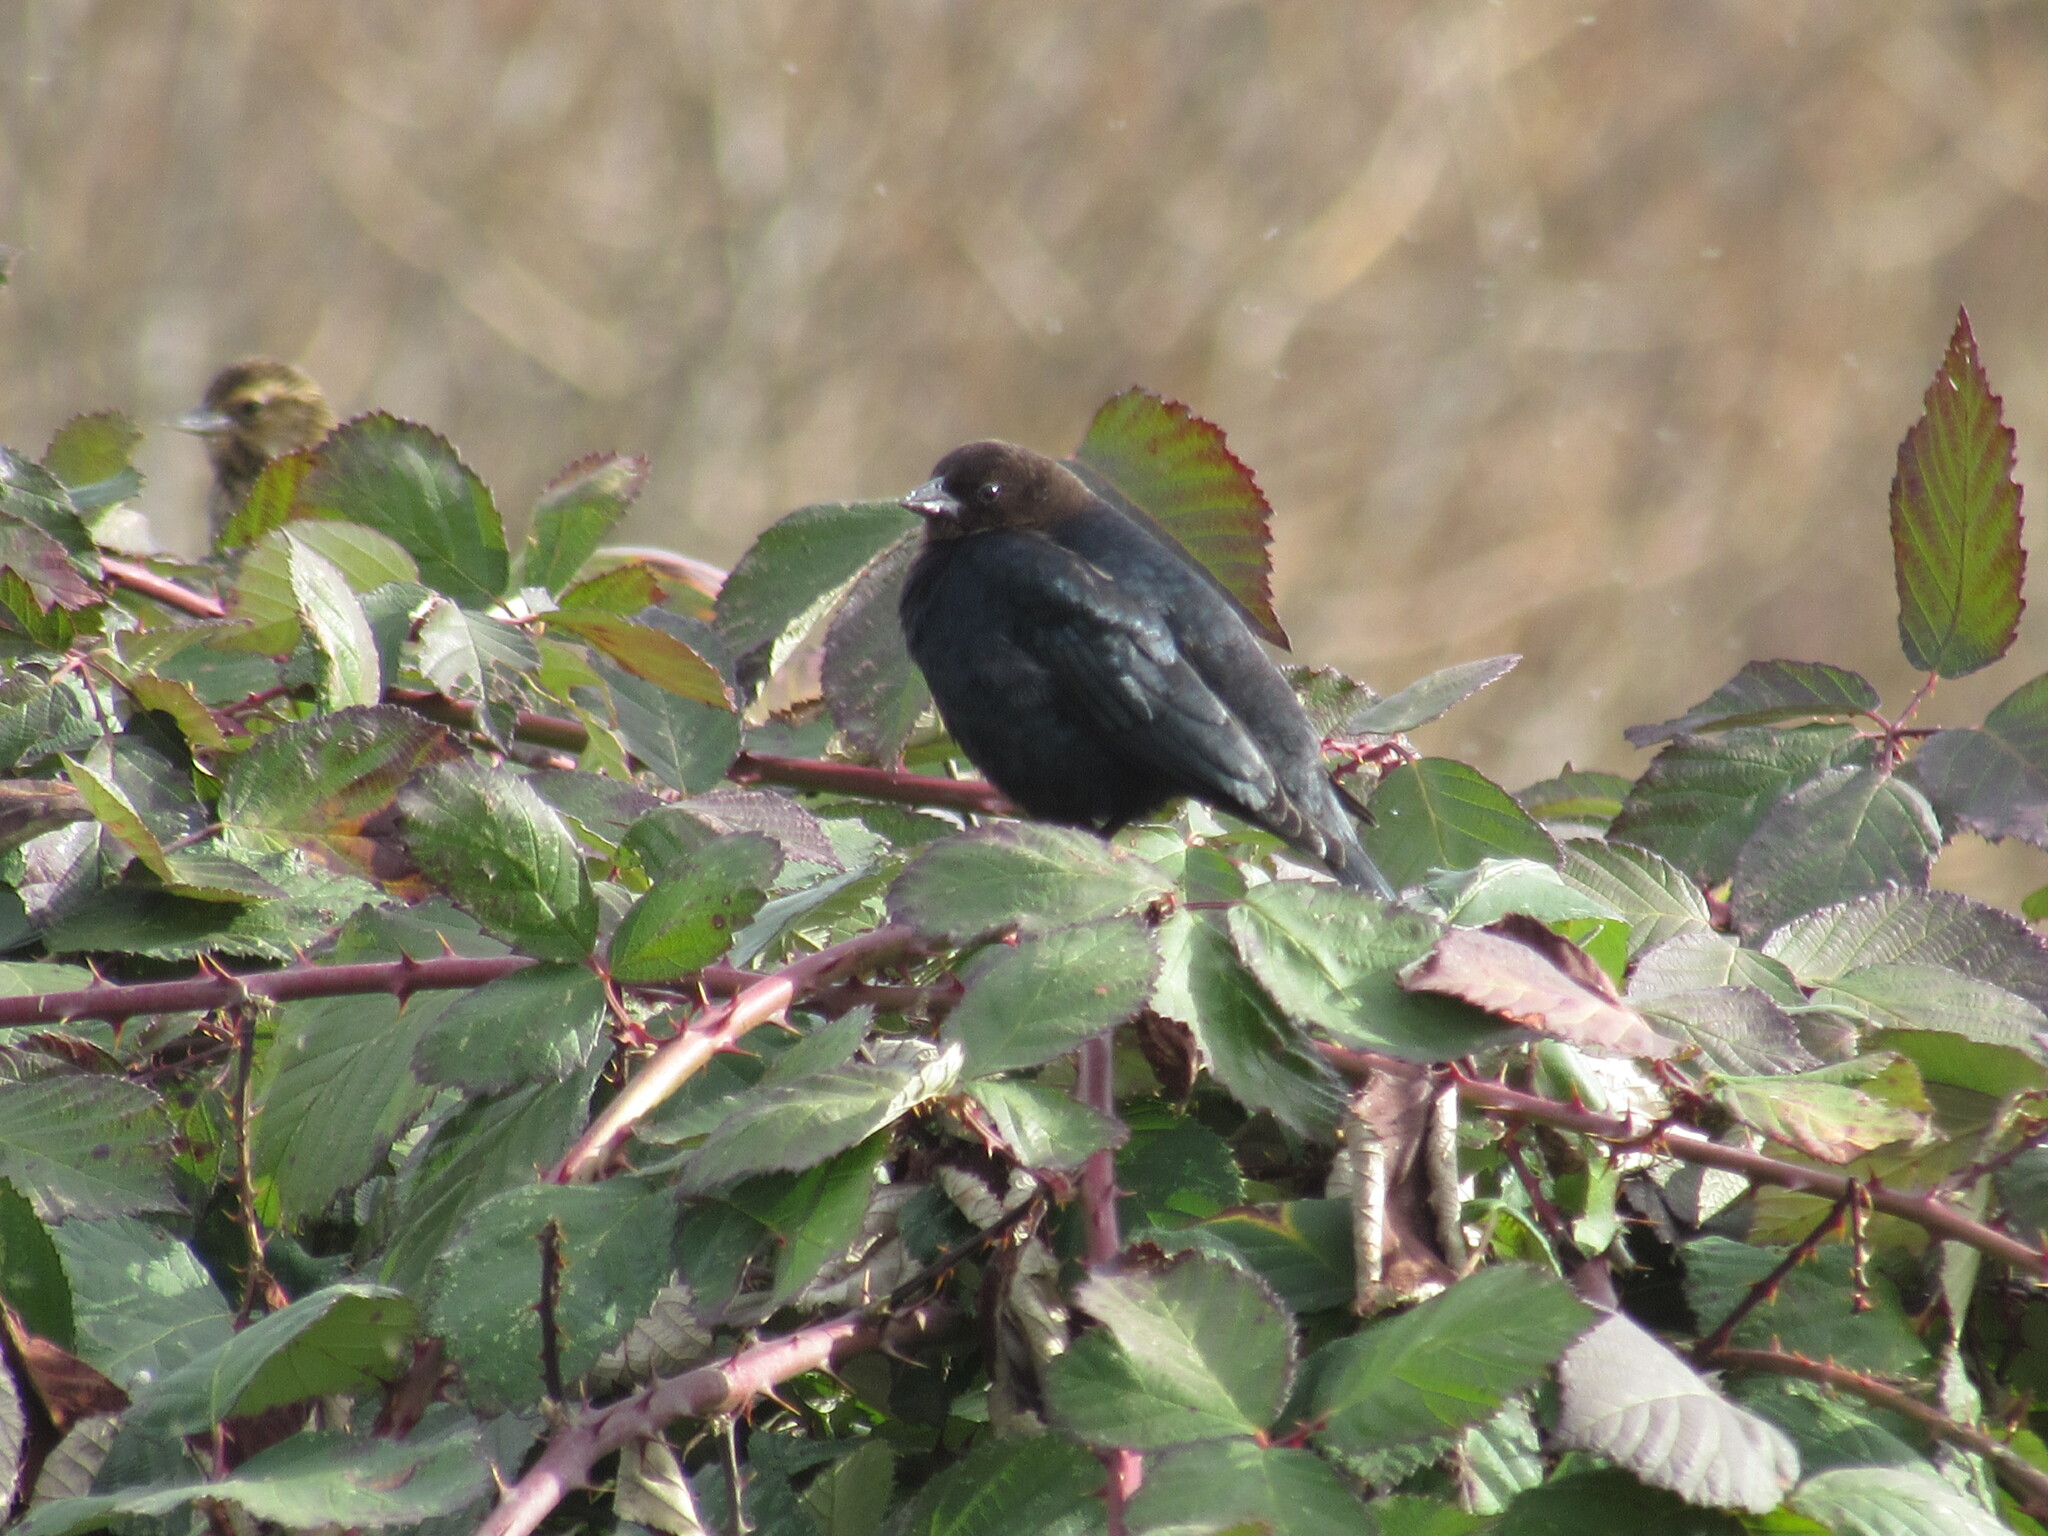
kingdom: Animalia
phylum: Chordata
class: Aves
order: Passeriformes
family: Icteridae
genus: Molothrus
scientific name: Molothrus ater
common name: Brown-headed cowbird
